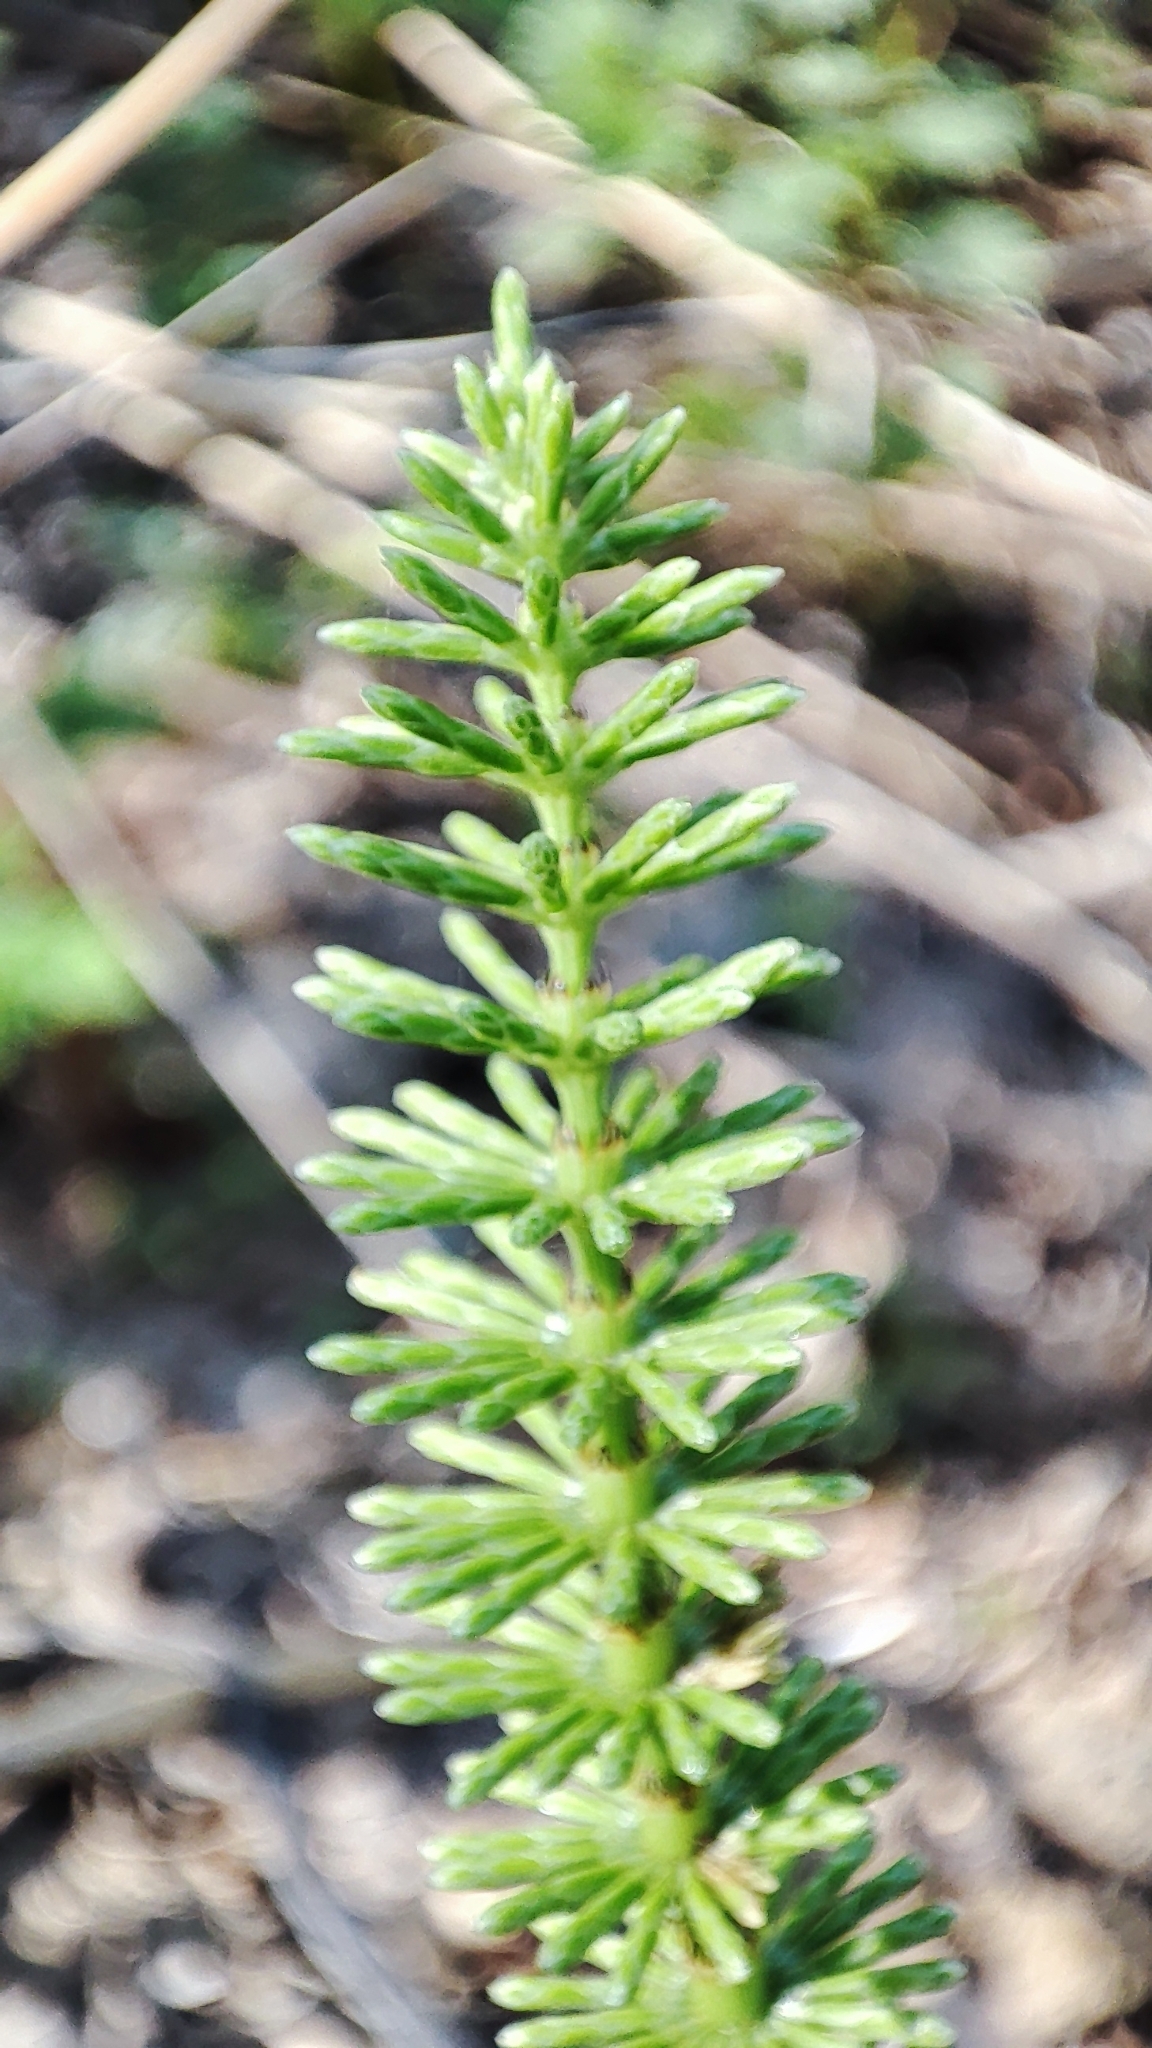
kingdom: Plantae
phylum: Tracheophyta
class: Polypodiopsida
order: Equisetales
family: Equisetaceae
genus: Equisetum
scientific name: Equisetum pratense
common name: Meadow horsetail
